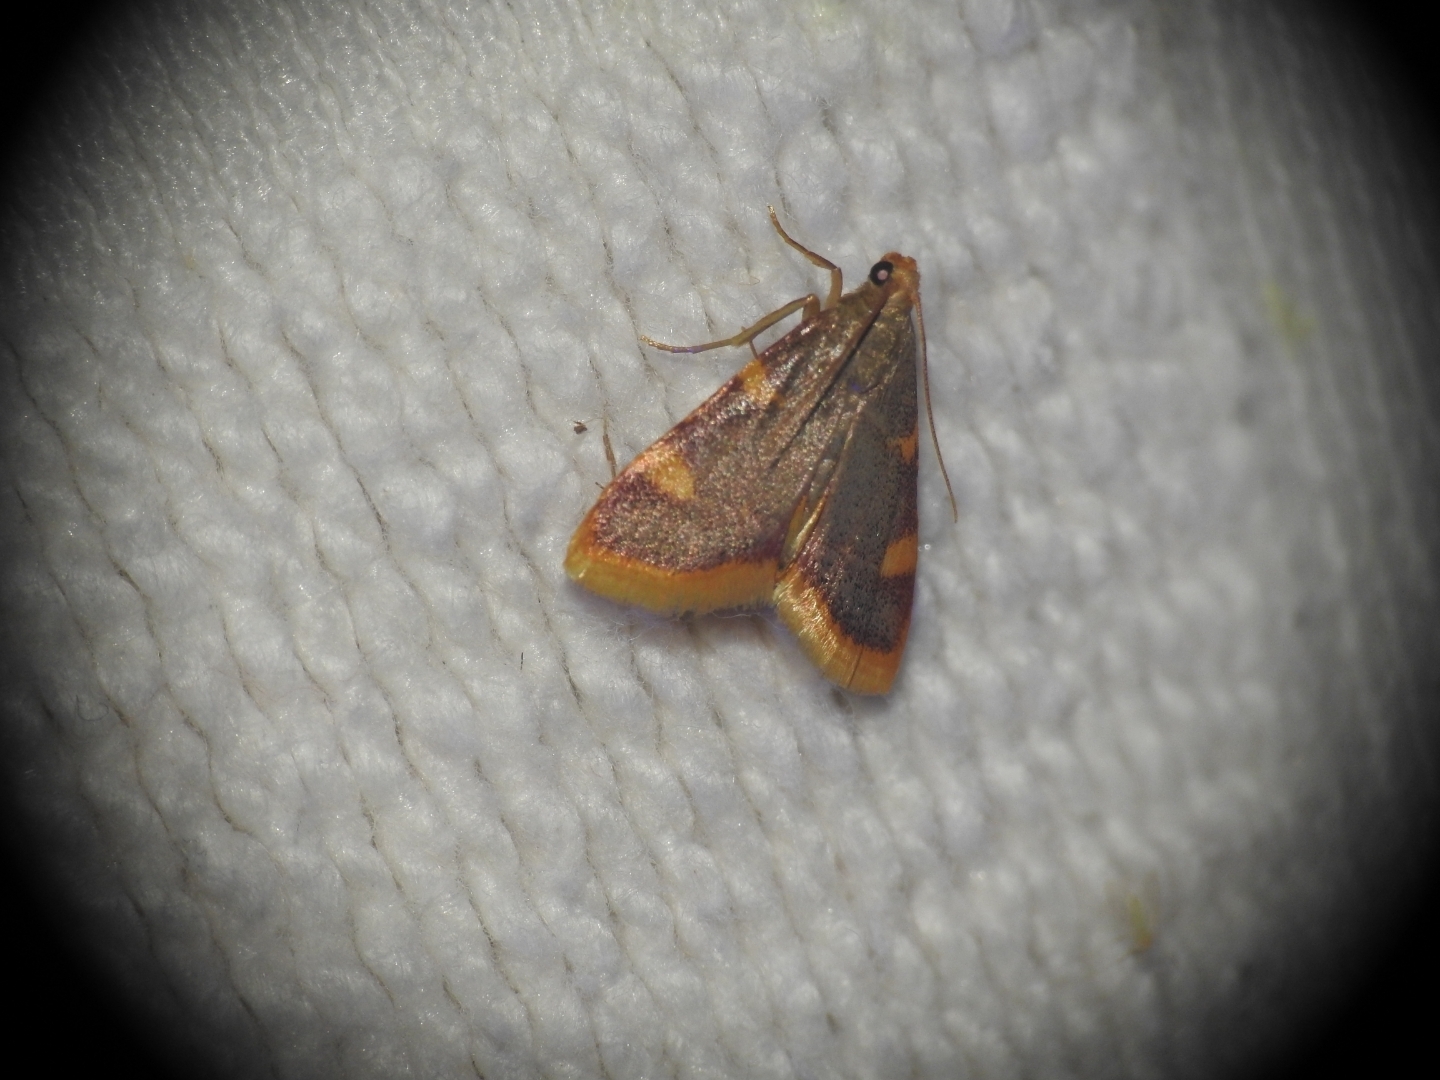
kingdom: Animalia
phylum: Arthropoda
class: Insecta
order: Lepidoptera
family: Pyralidae
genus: Hypsopygia
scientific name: Hypsopygia costalis
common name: Gold triangle
